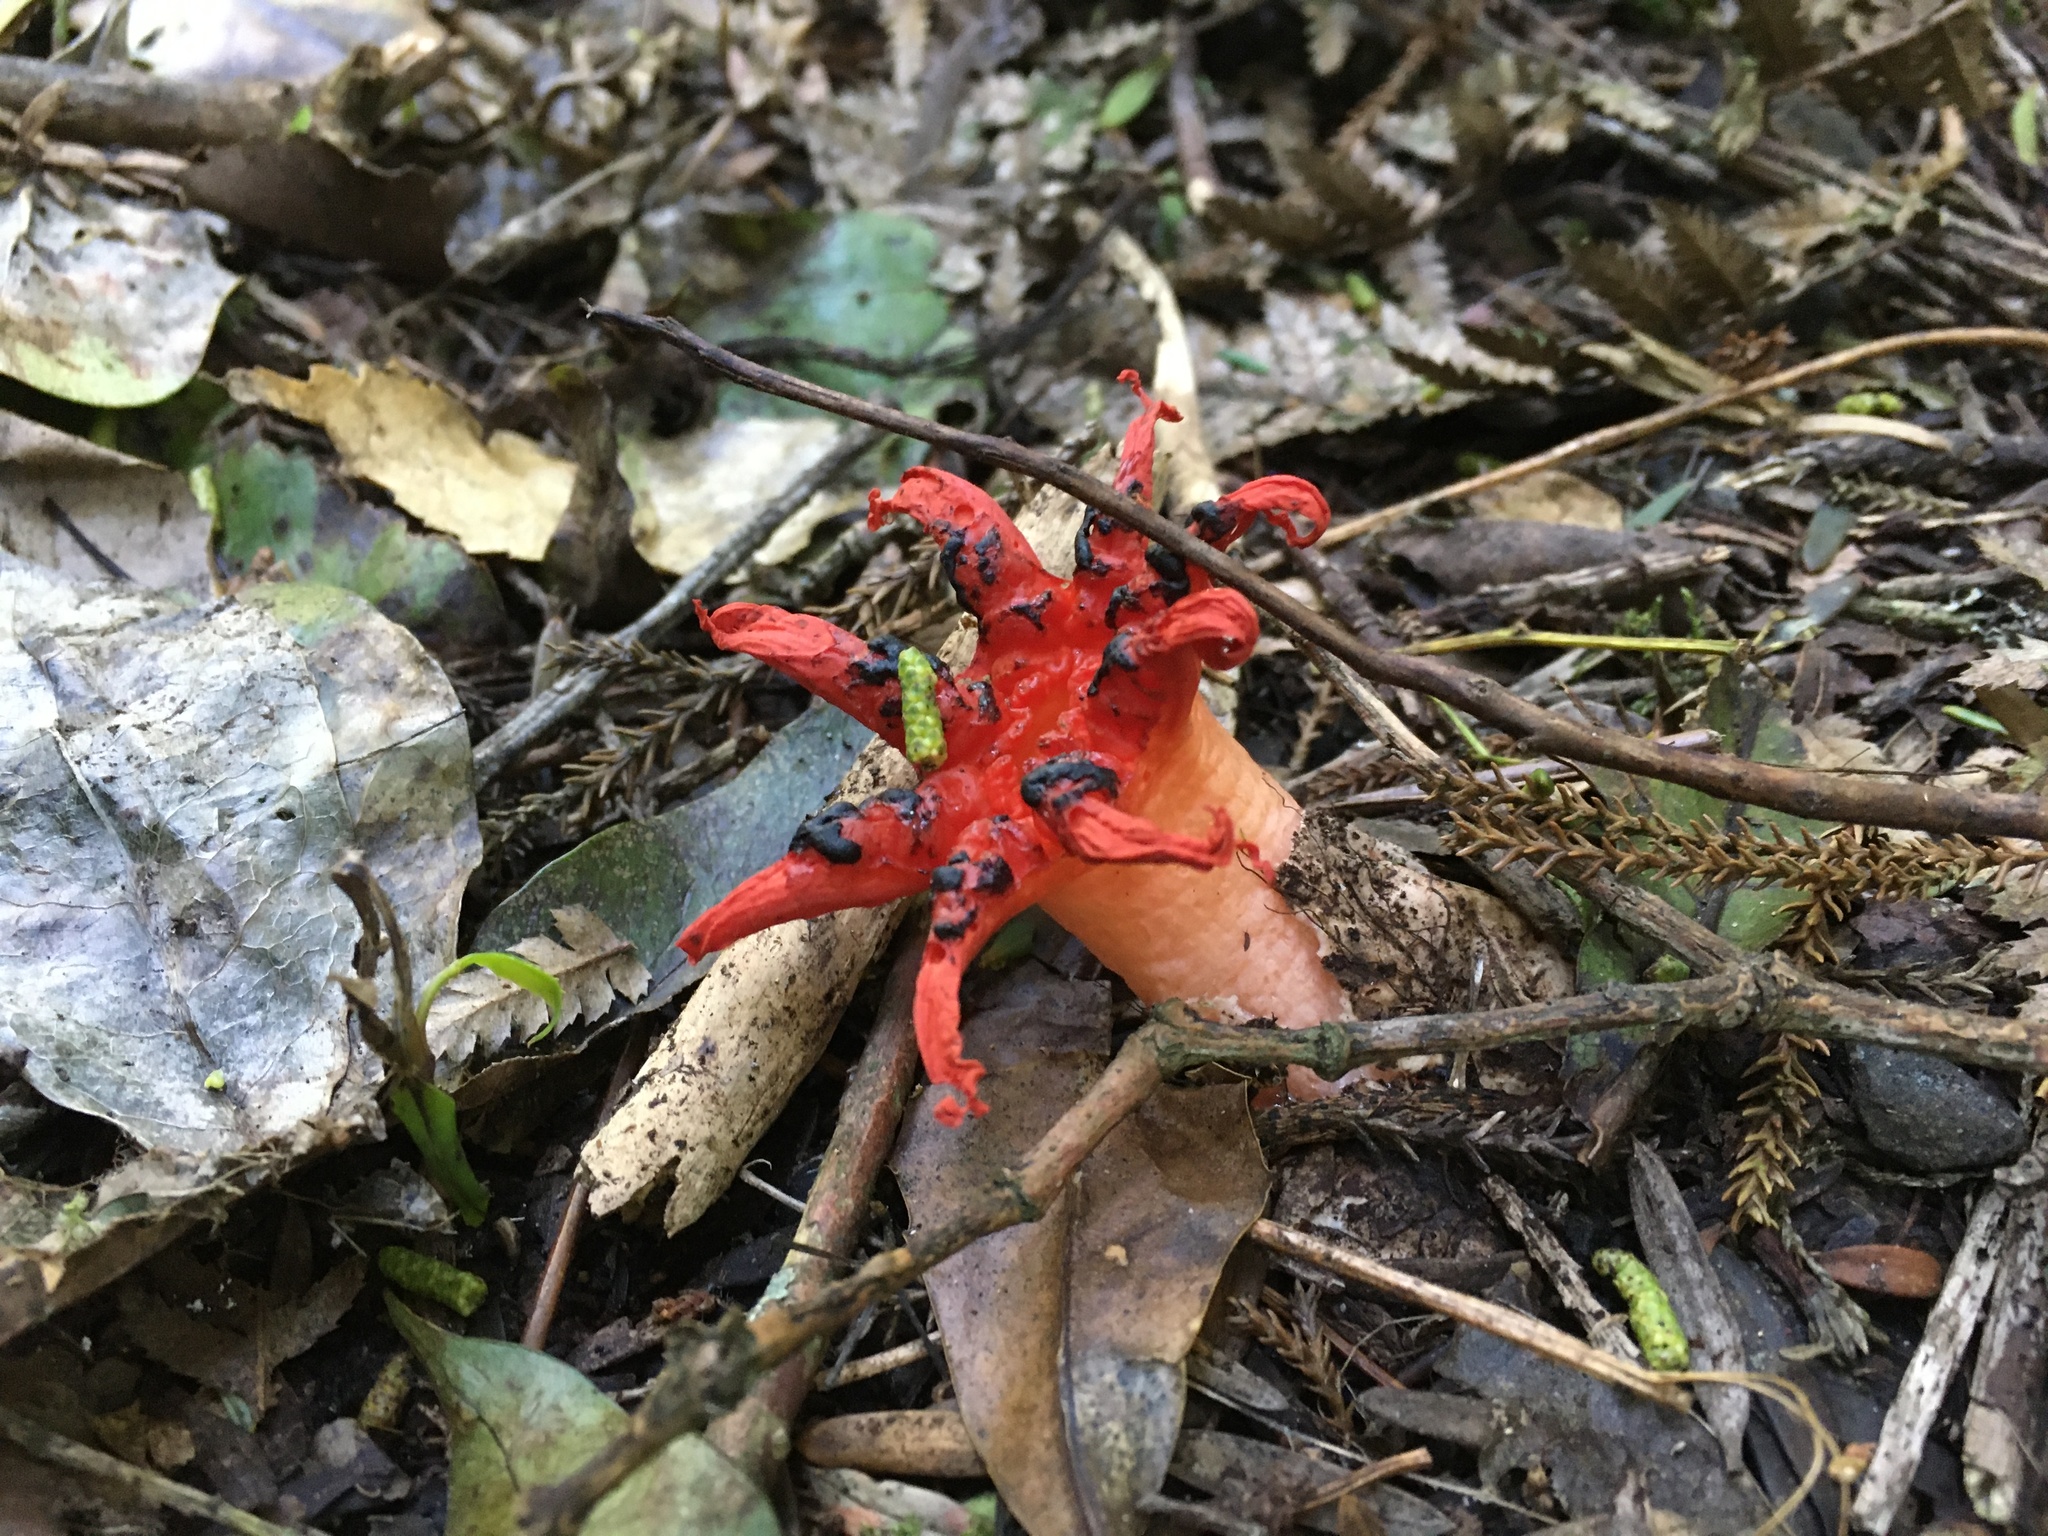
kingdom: Fungi
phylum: Basidiomycota
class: Agaricomycetes
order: Phallales
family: Phallaceae
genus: Clathrus
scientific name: Clathrus archeri
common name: Devil's fingers
